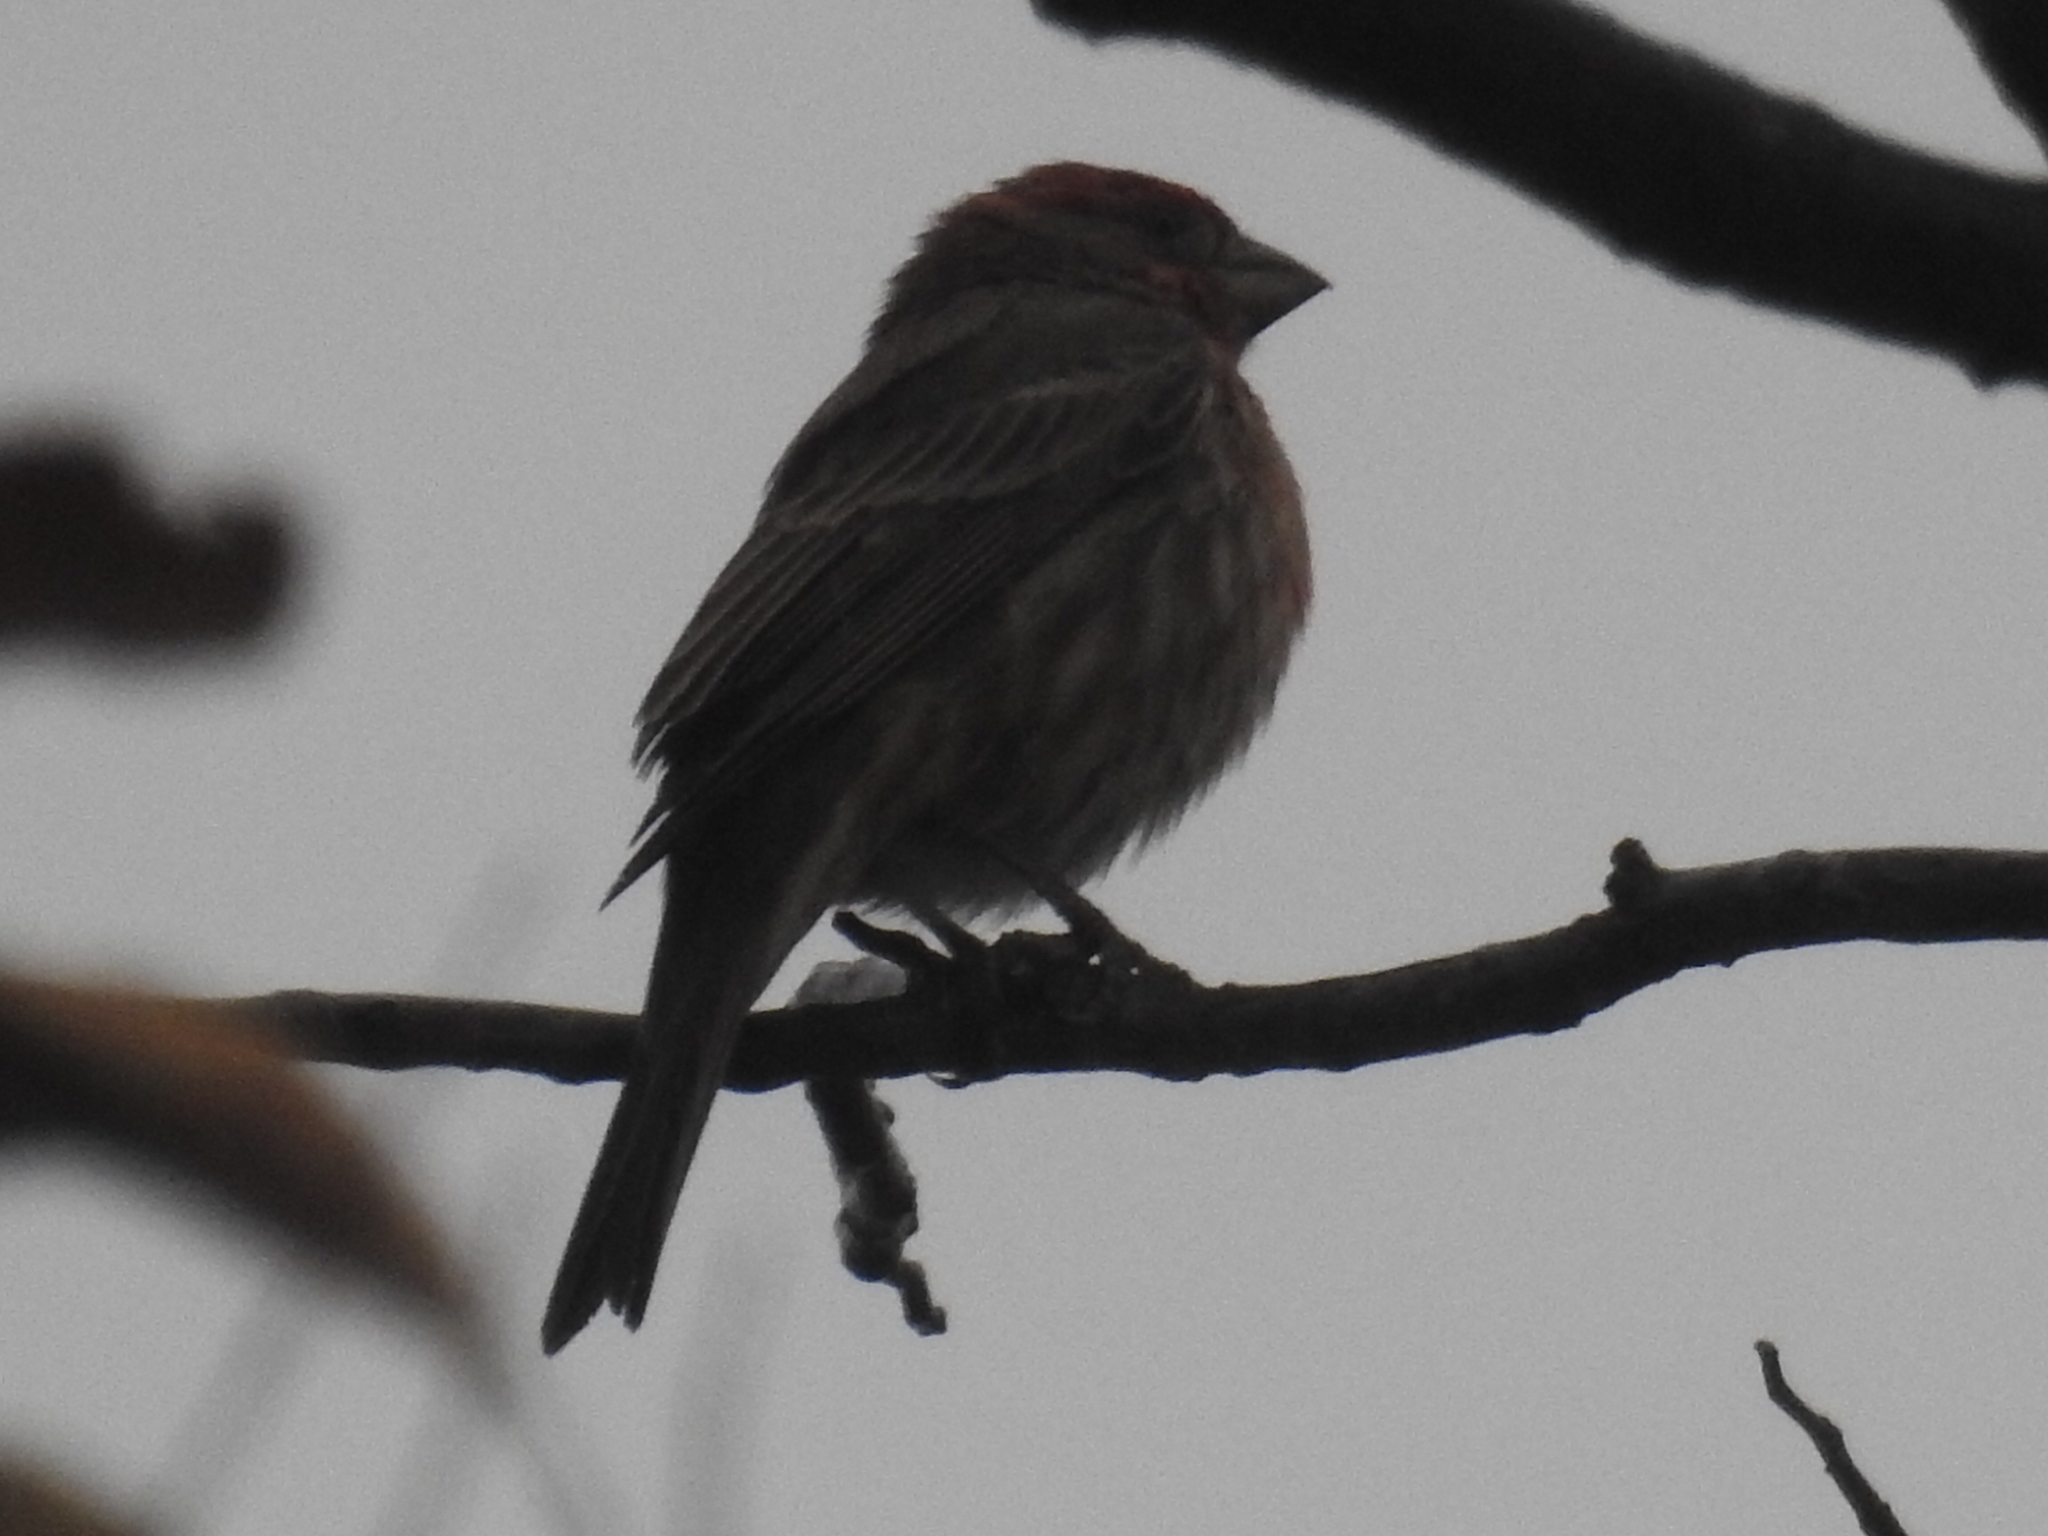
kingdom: Animalia
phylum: Chordata
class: Aves
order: Passeriformes
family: Fringillidae
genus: Haemorhous
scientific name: Haemorhous mexicanus
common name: House finch
